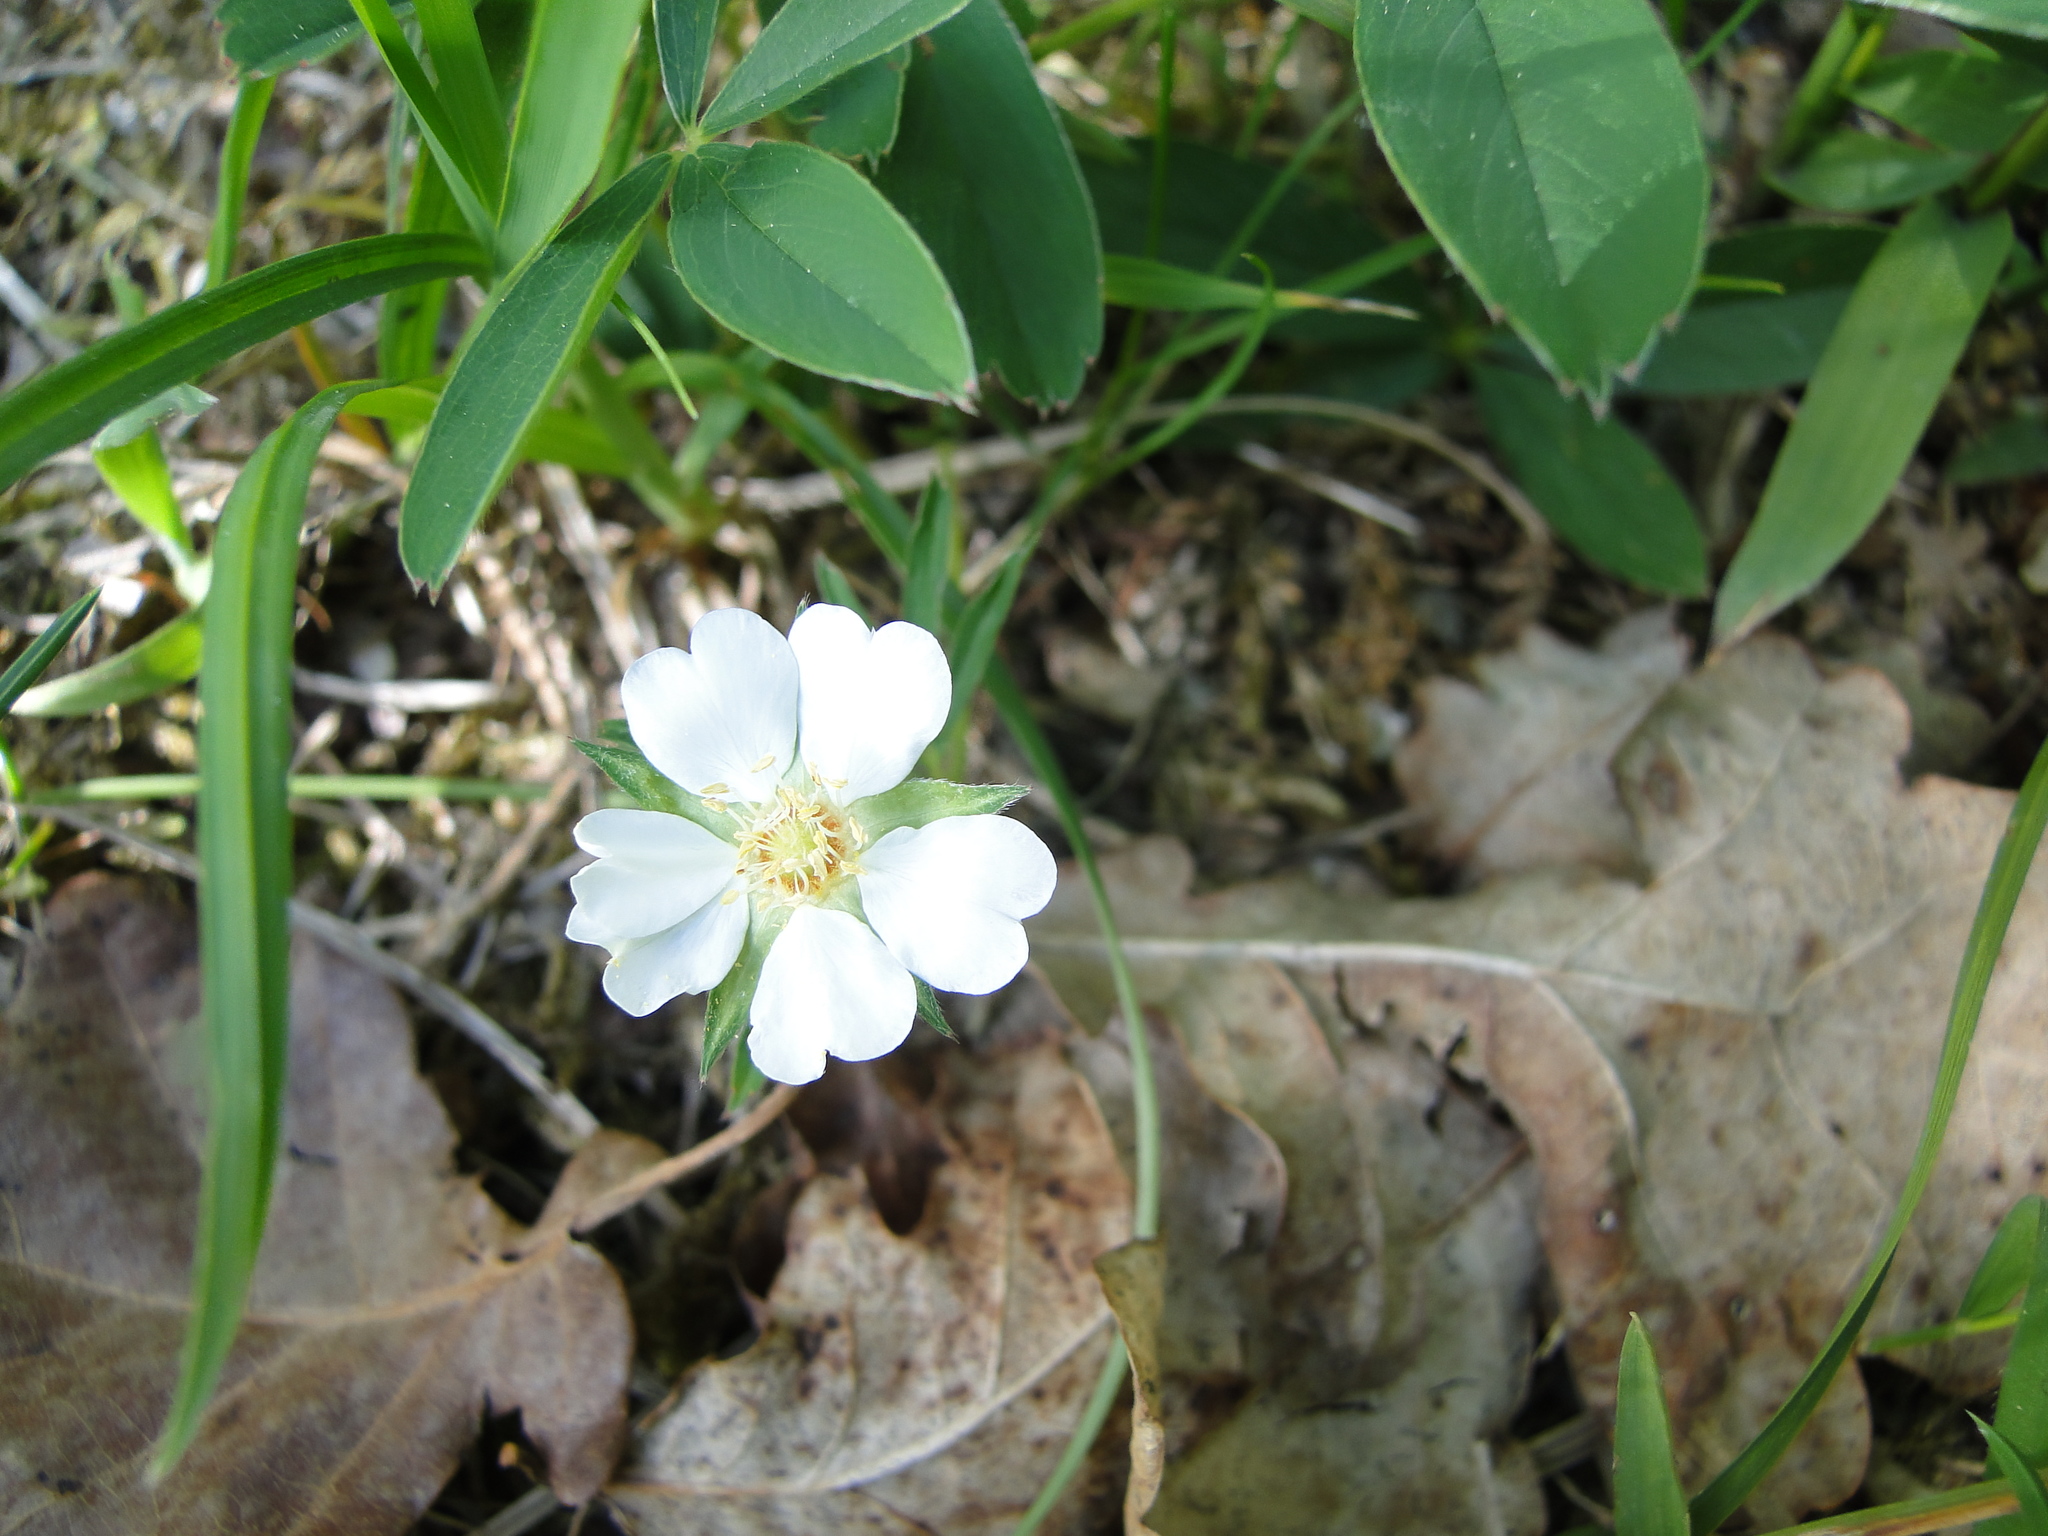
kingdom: Plantae
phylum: Tracheophyta
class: Magnoliopsida
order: Rosales
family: Rosaceae
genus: Potentilla
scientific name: Potentilla alba
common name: White cinquefoil
